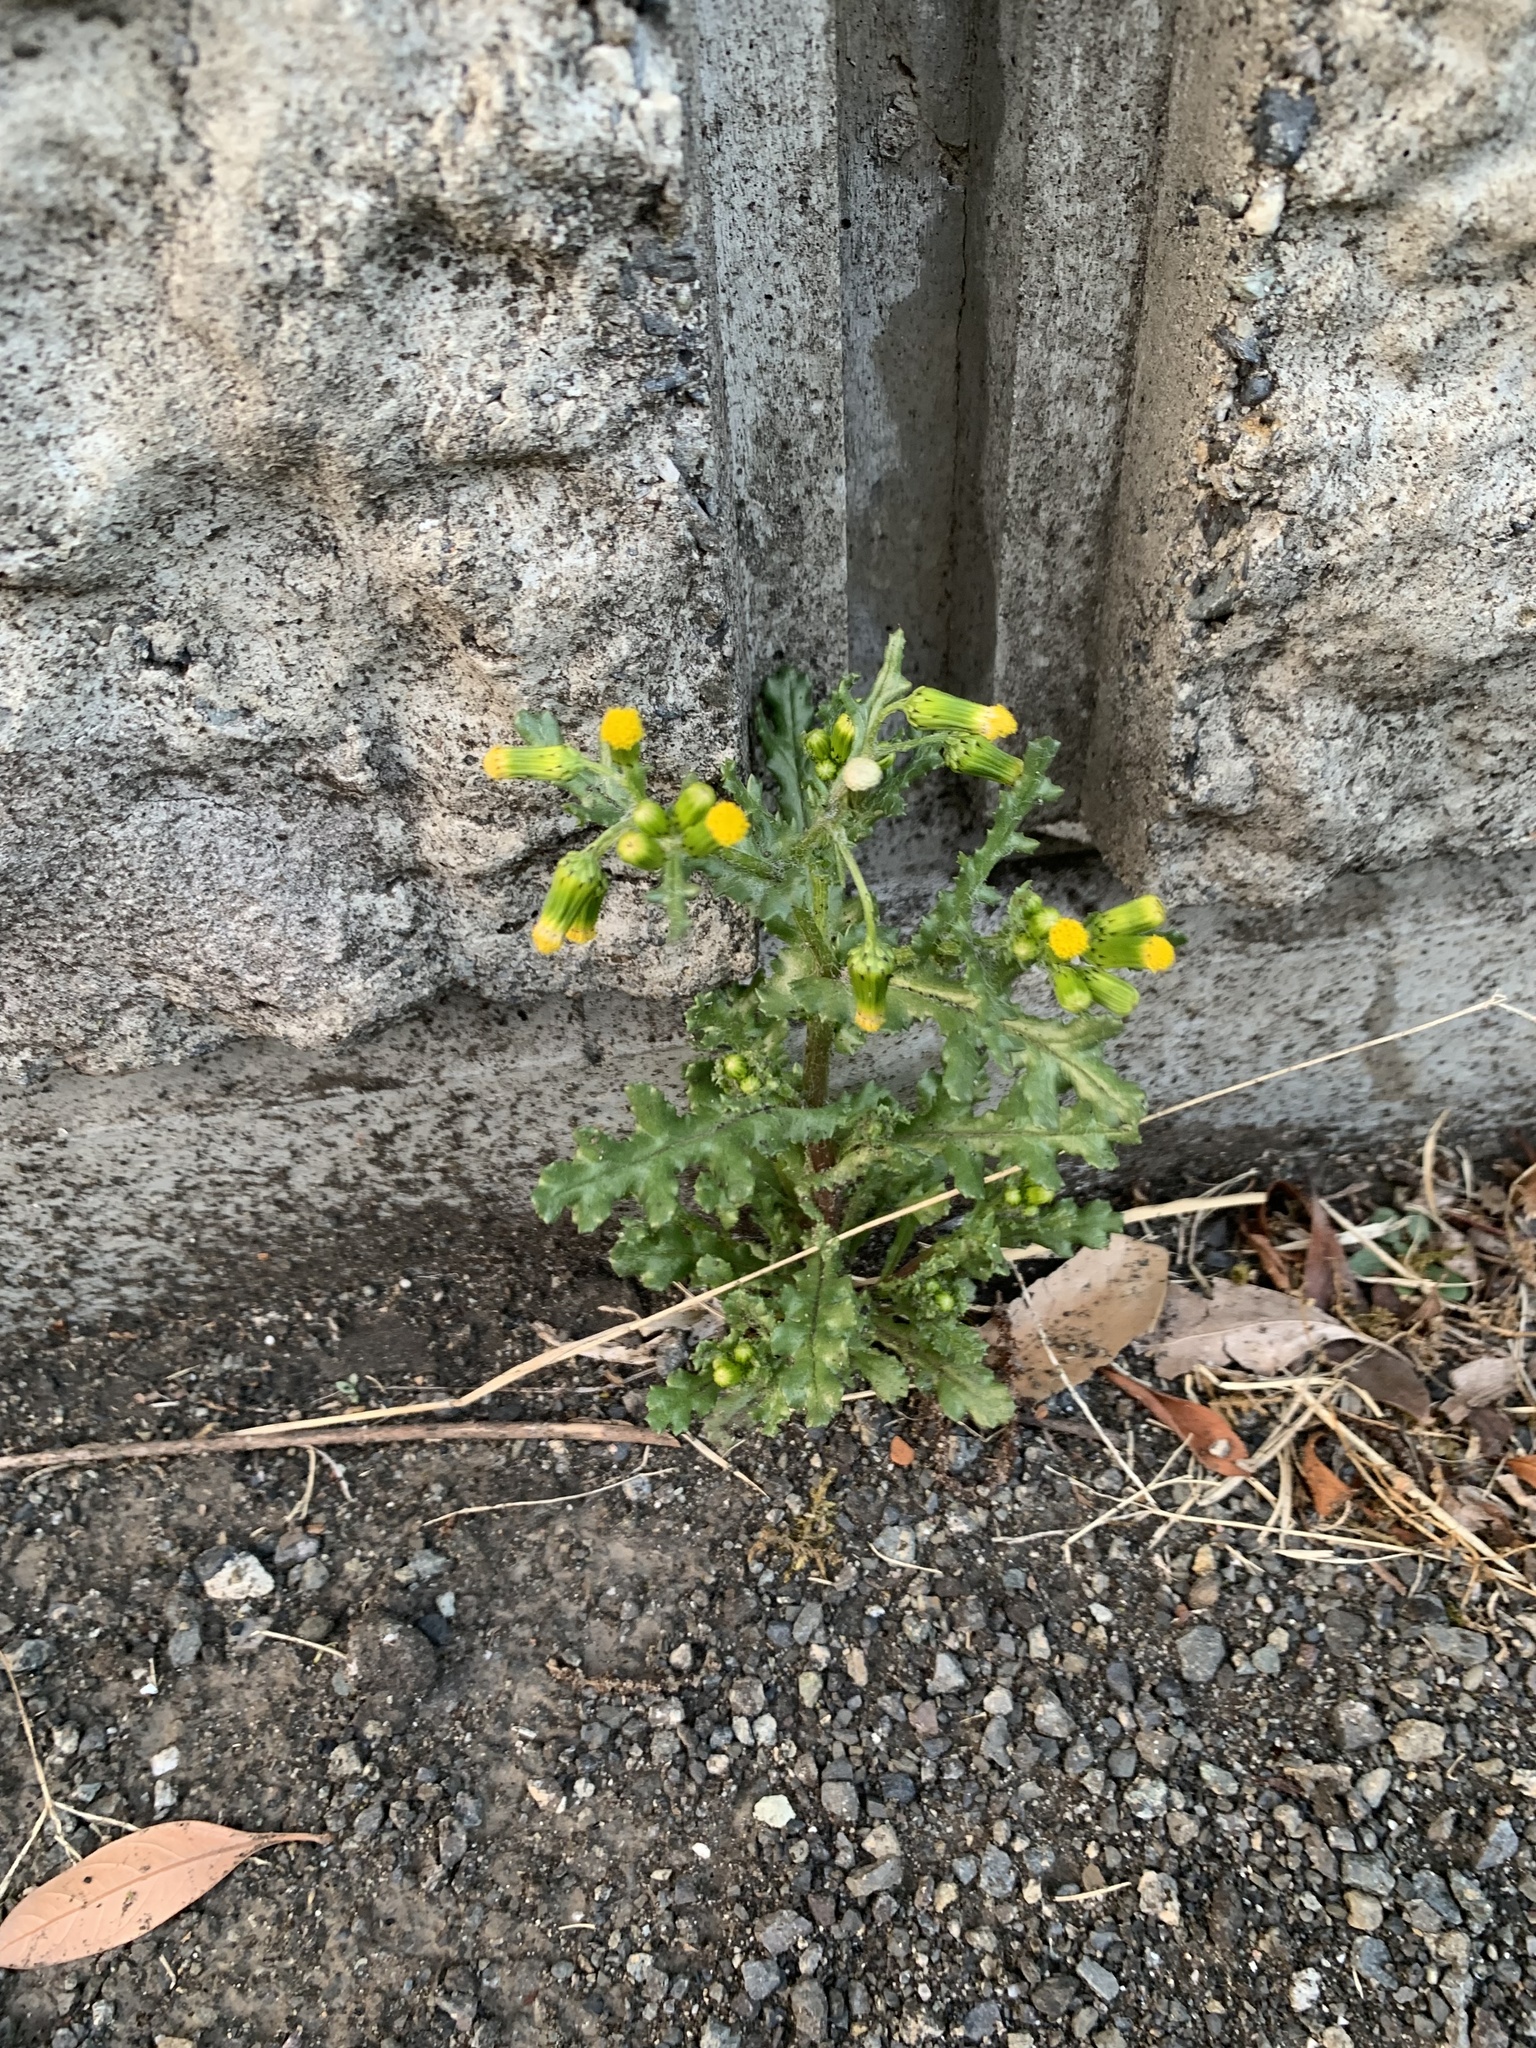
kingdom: Plantae
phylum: Tracheophyta
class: Magnoliopsida
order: Asterales
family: Asteraceae
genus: Senecio
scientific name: Senecio vulgaris
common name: Old-man-in-the-spring
